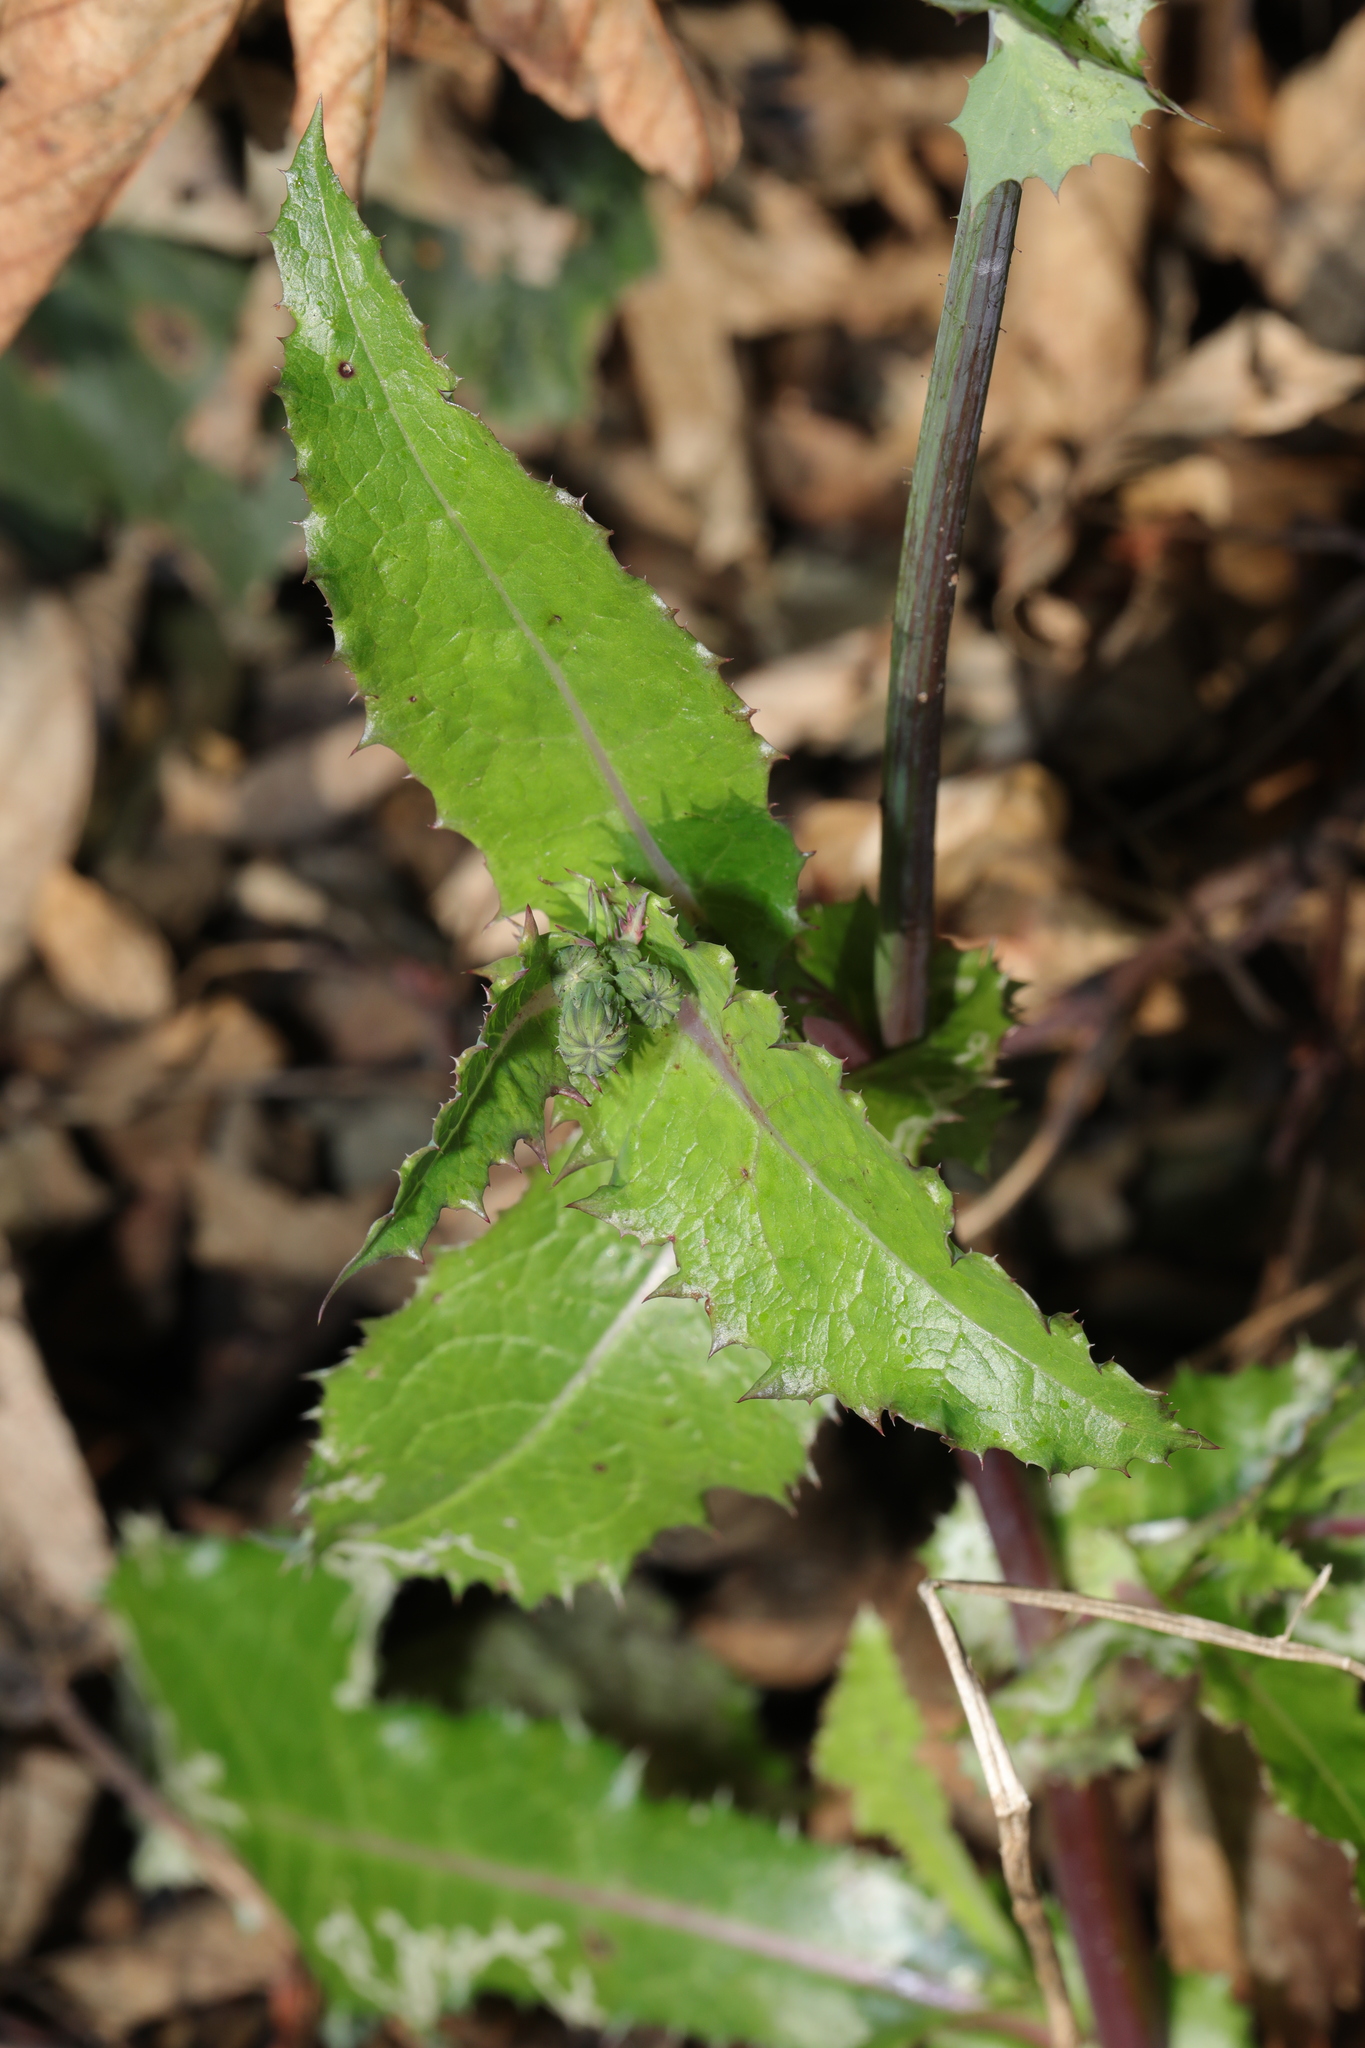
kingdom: Plantae
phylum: Tracheophyta
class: Magnoliopsida
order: Asterales
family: Asteraceae
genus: Sonchus
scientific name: Sonchus asper
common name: Prickly sow-thistle
